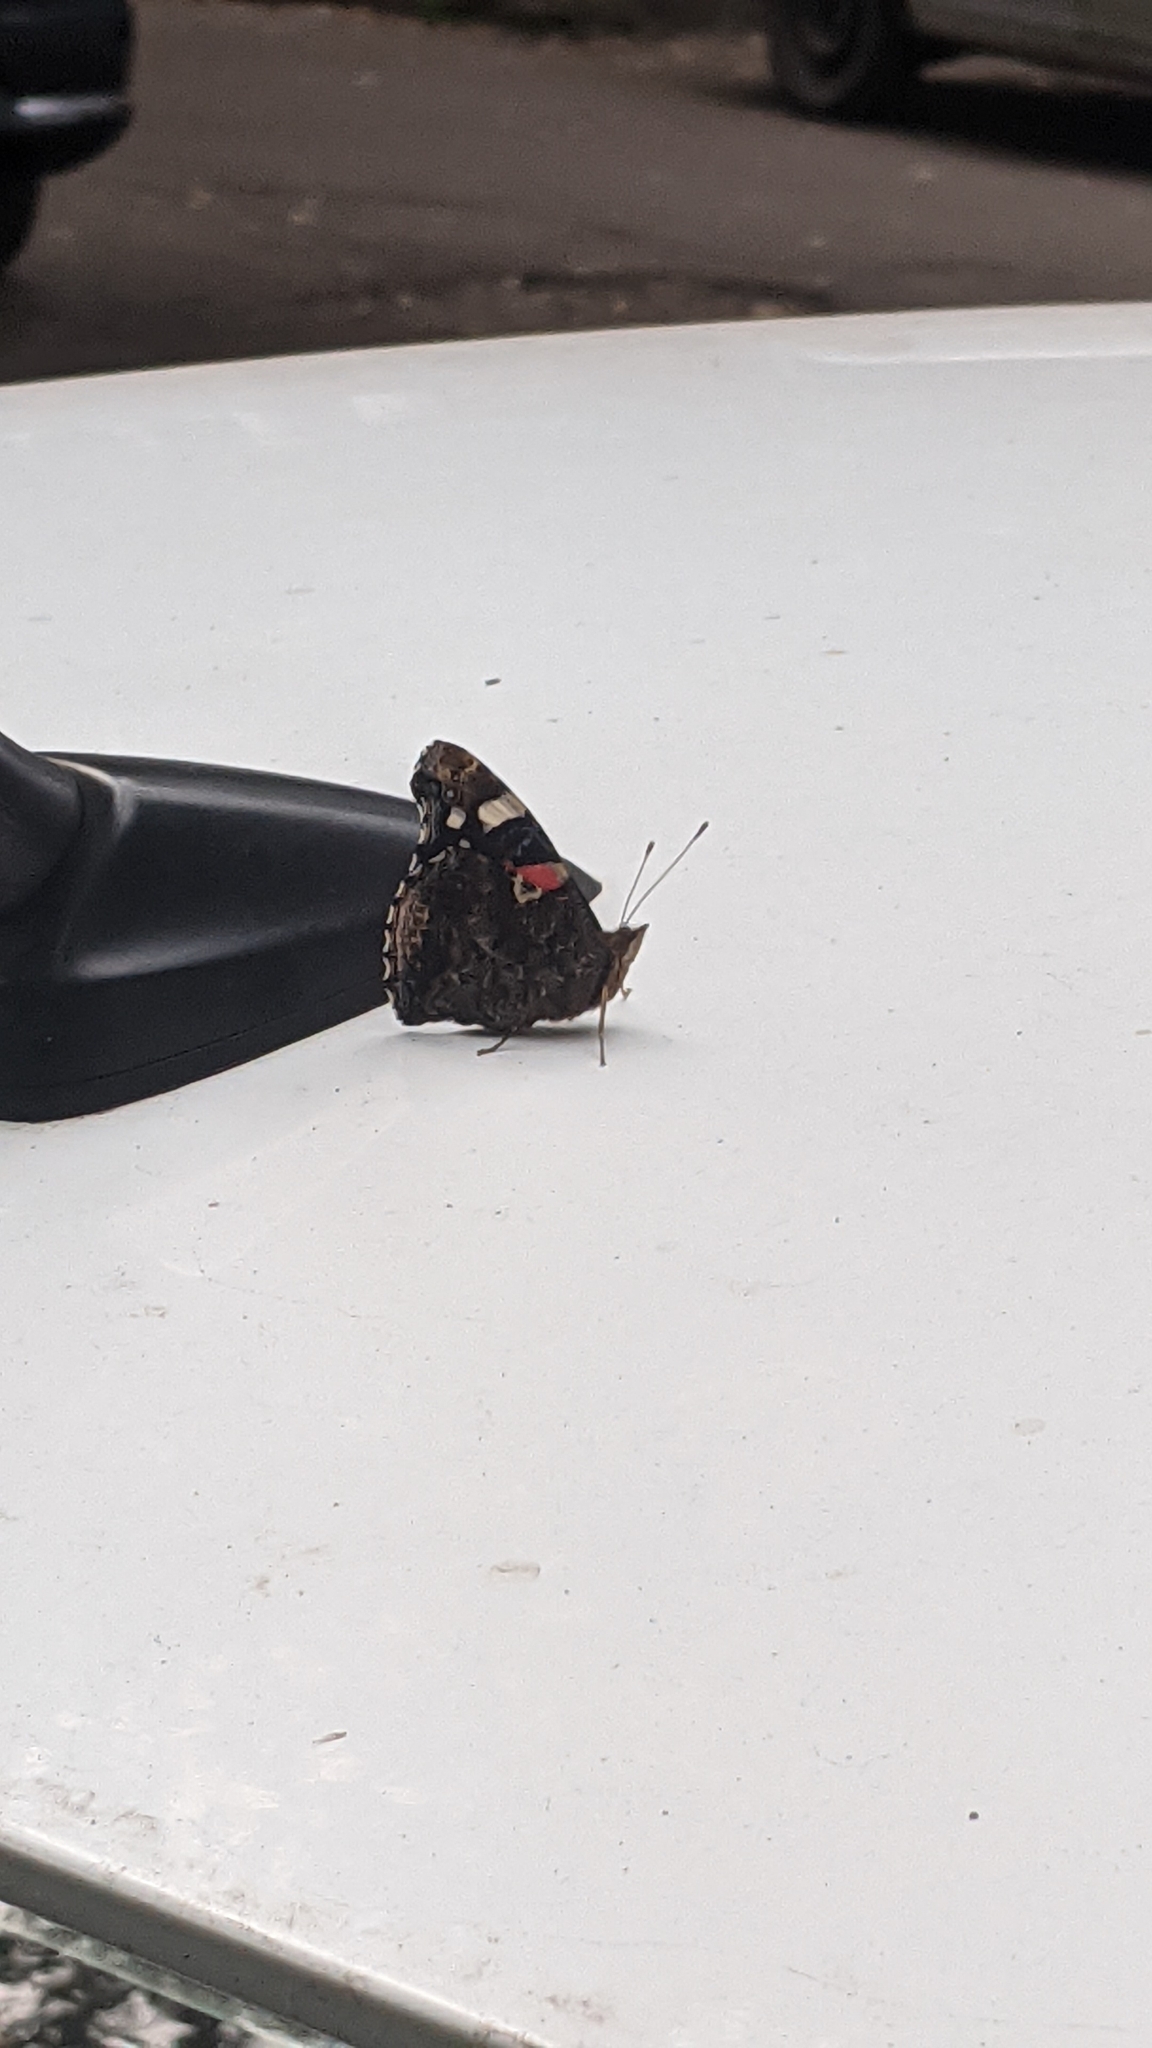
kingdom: Animalia
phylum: Arthropoda
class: Insecta
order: Lepidoptera
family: Nymphalidae
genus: Vanessa
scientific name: Vanessa atalanta
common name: Red admiral
